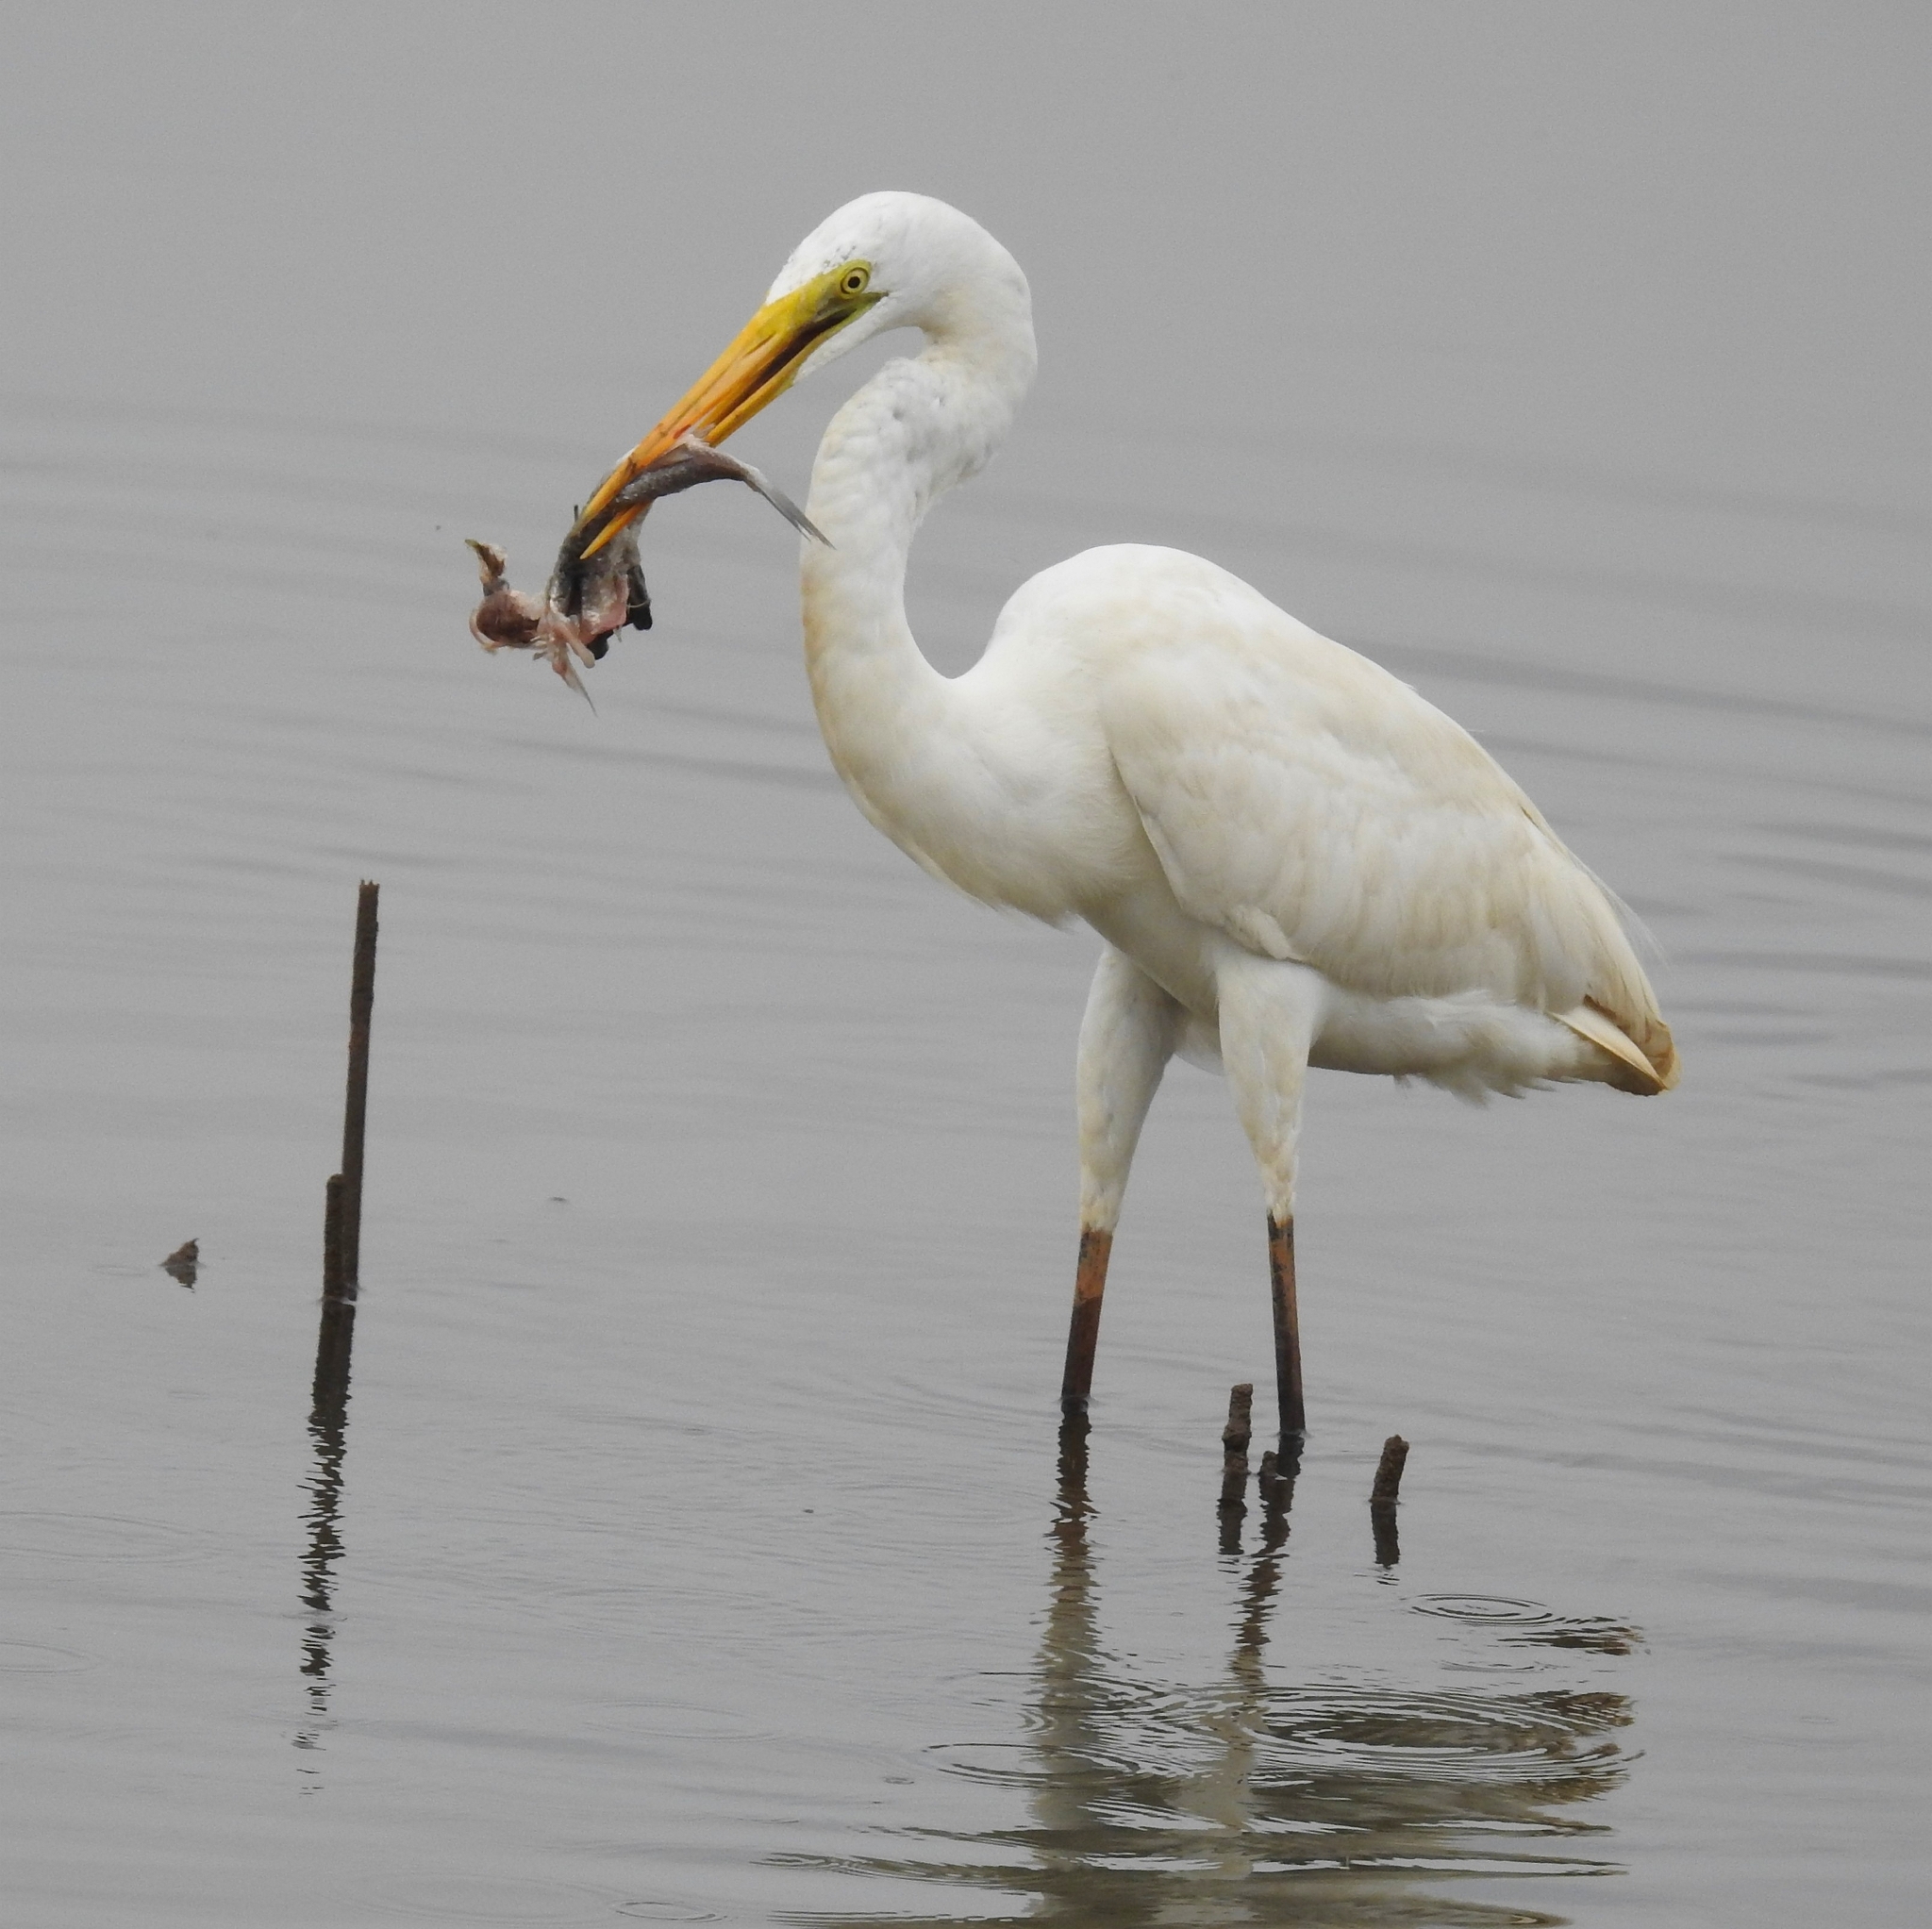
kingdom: Animalia
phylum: Chordata
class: Aves
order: Pelecaniformes
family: Ardeidae
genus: Ardea
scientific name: Ardea alba
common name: Great egret
